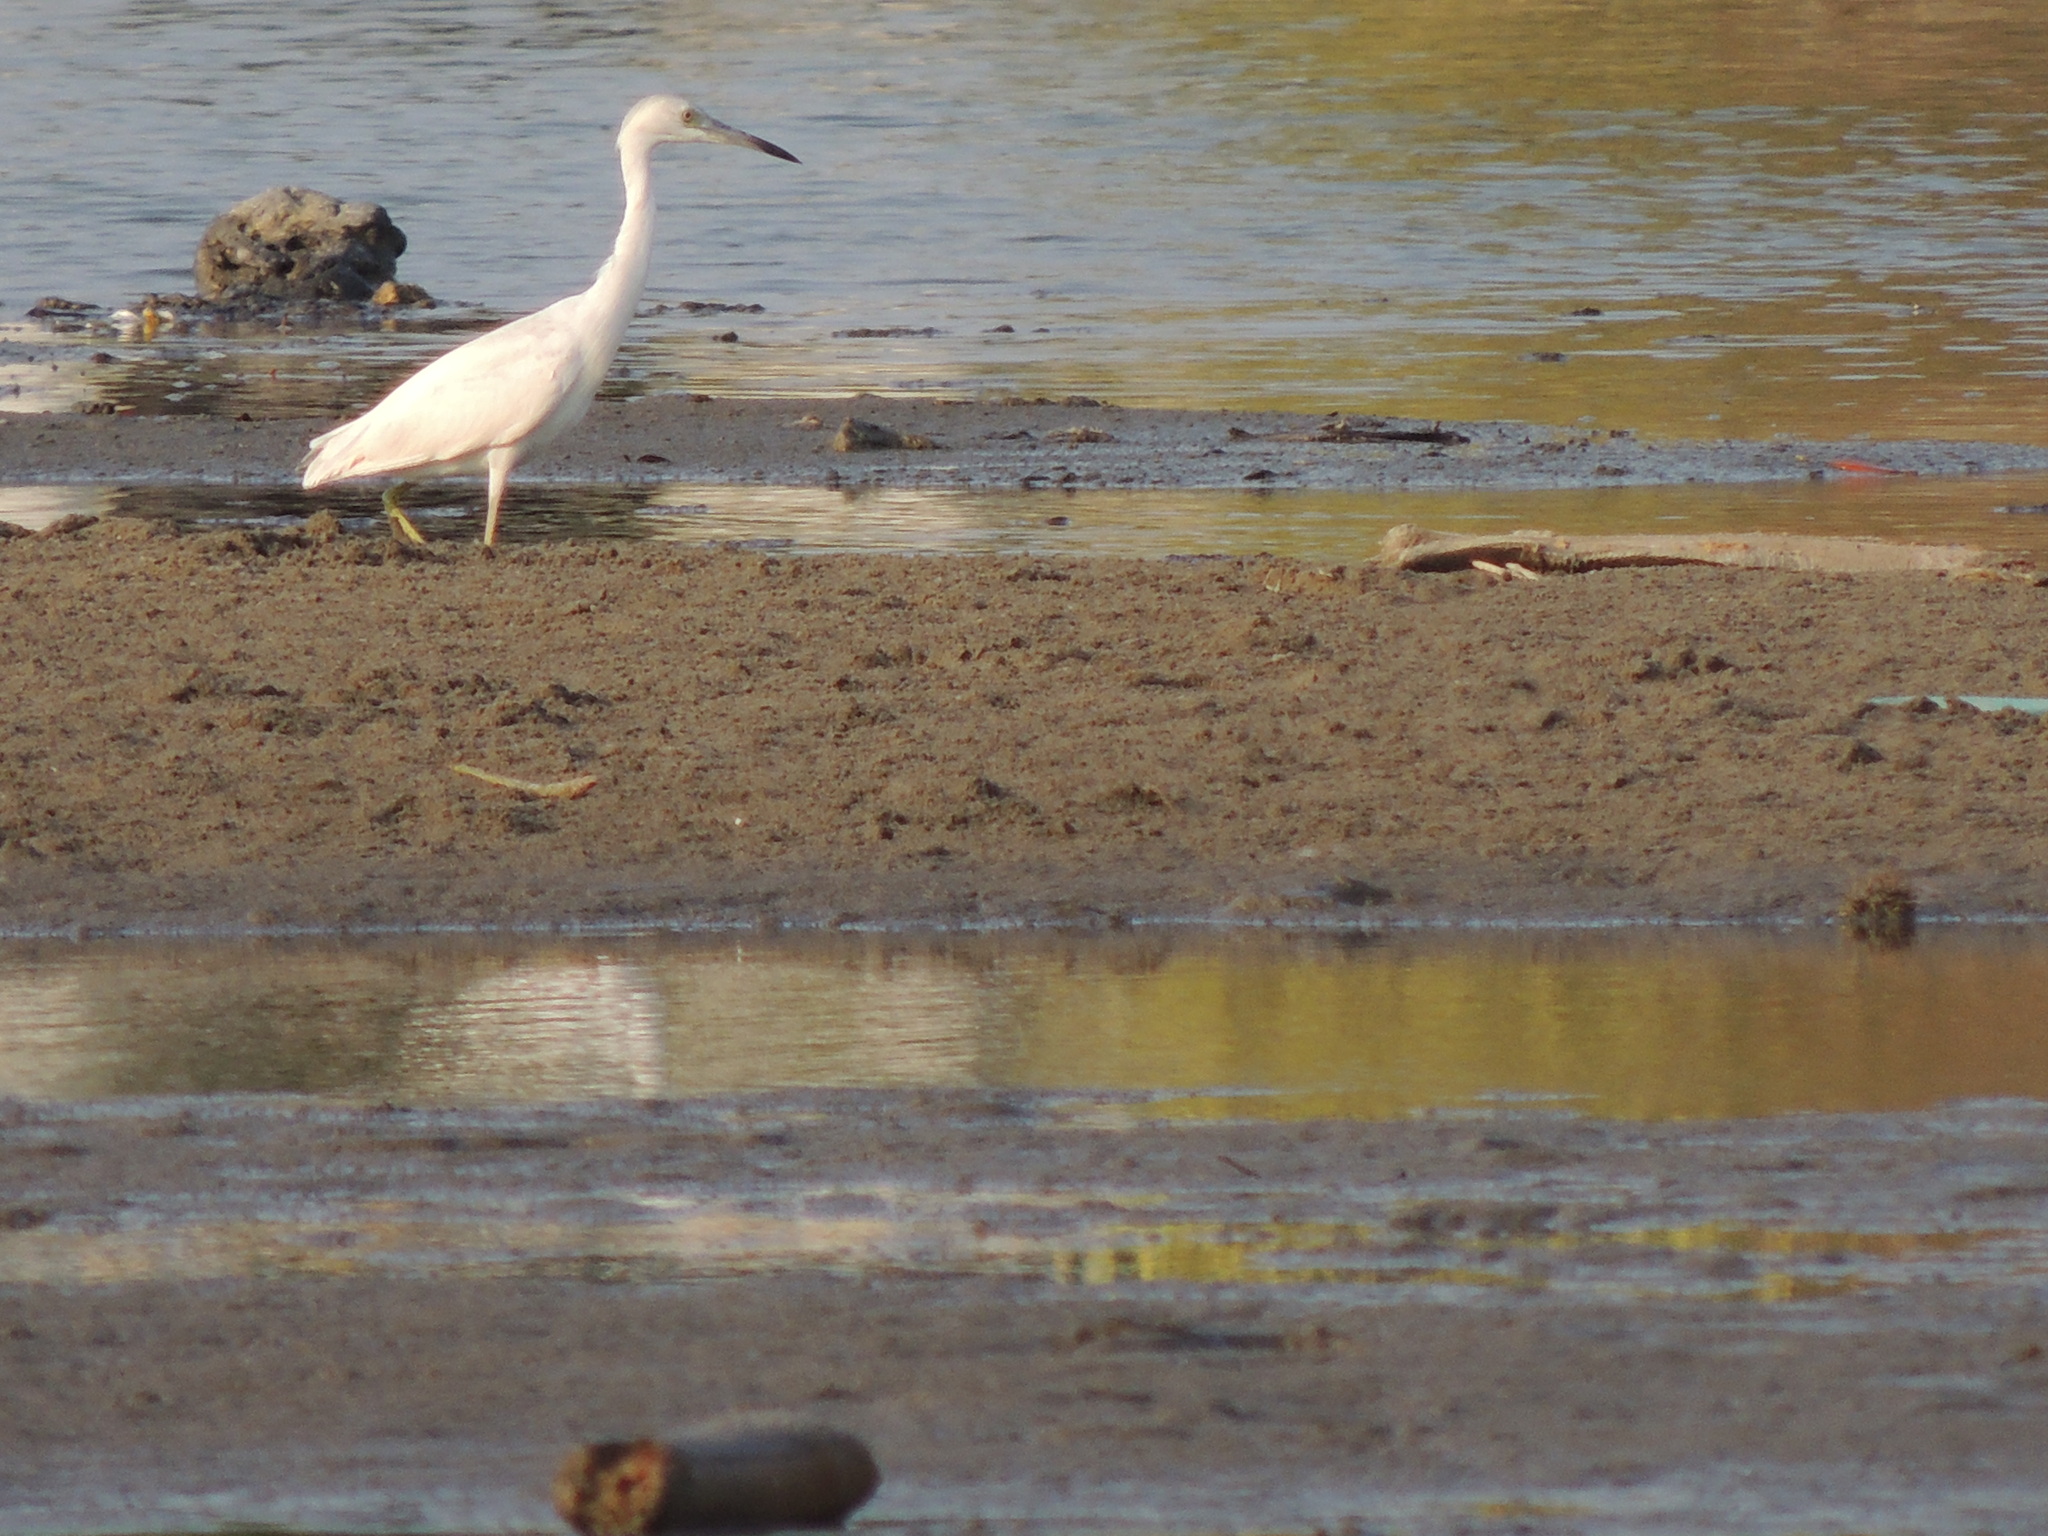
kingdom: Animalia
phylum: Chordata
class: Aves
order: Pelecaniformes
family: Ardeidae
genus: Egretta
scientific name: Egretta caerulea
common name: Little blue heron
